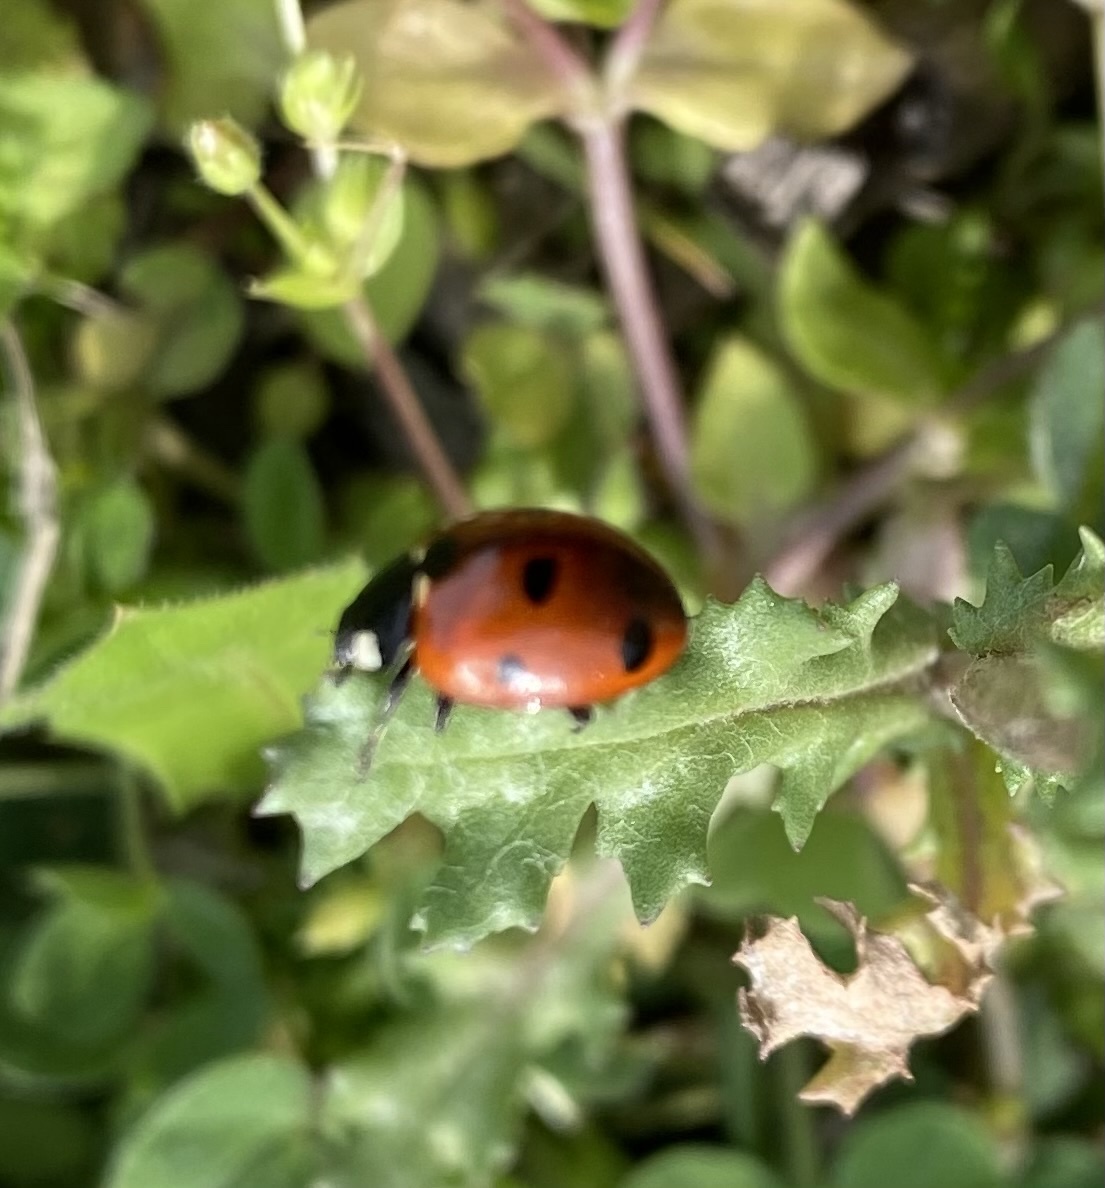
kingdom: Animalia
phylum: Arthropoda
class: Insecta
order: Coleoptera
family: Coccinellidae
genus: Coccinella
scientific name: Coccinella septempunctata
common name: Sevenspotted lady beetle
